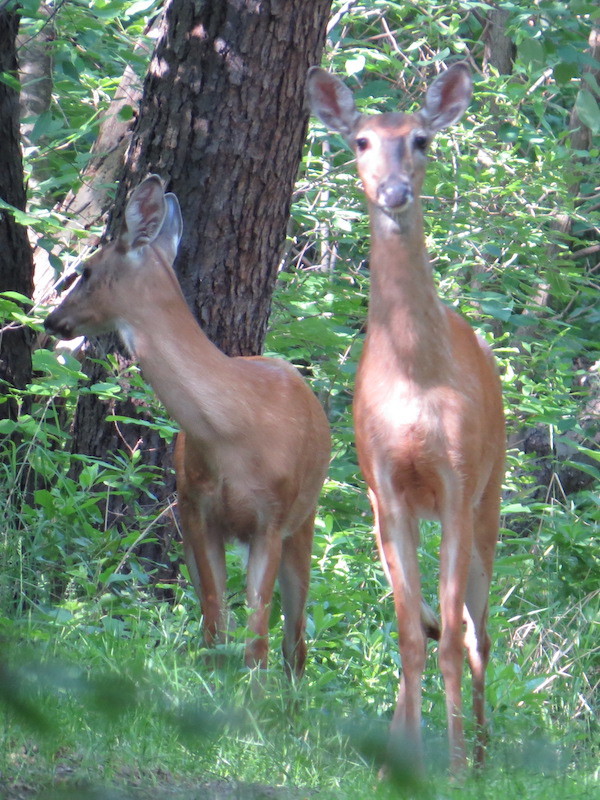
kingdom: Animalia
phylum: Chordata
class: Mammalia
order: Artiodactyla
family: Cervidae
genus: Odocoileus
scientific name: Odocoileus virginianus
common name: White-tailed deer
